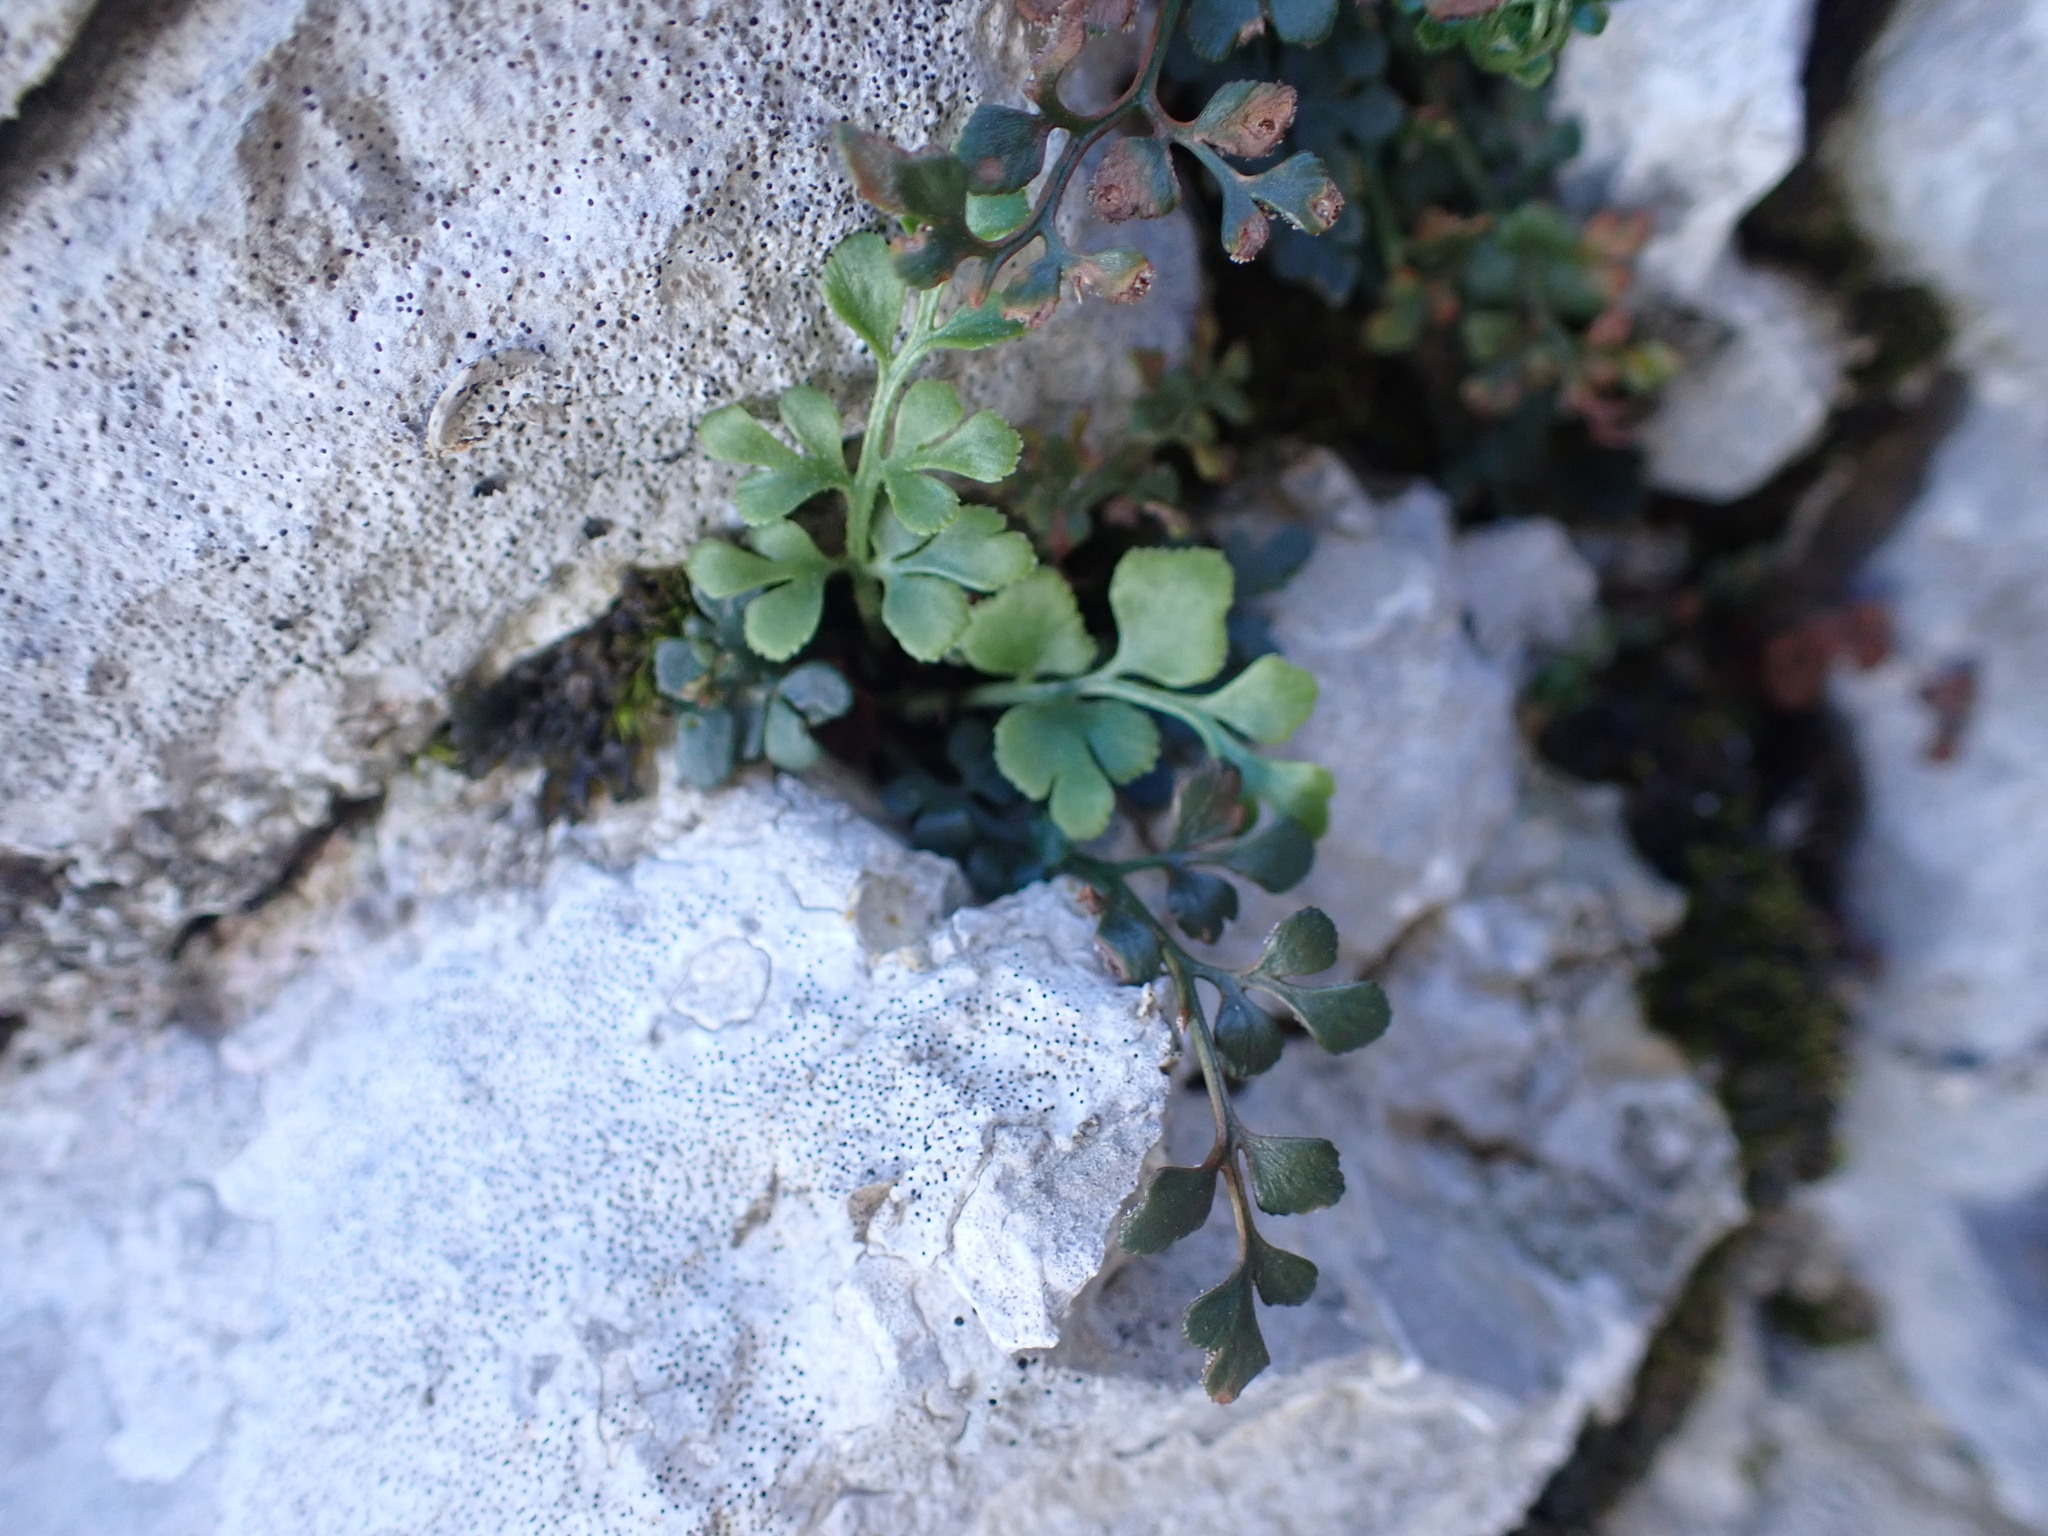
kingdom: Plantae
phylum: Tracheophyta
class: Polypodiopsida
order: Polypodiales
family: Aspleniaceae
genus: Asplenium
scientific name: Asplenium ruta-muraria
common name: Wall-rue
